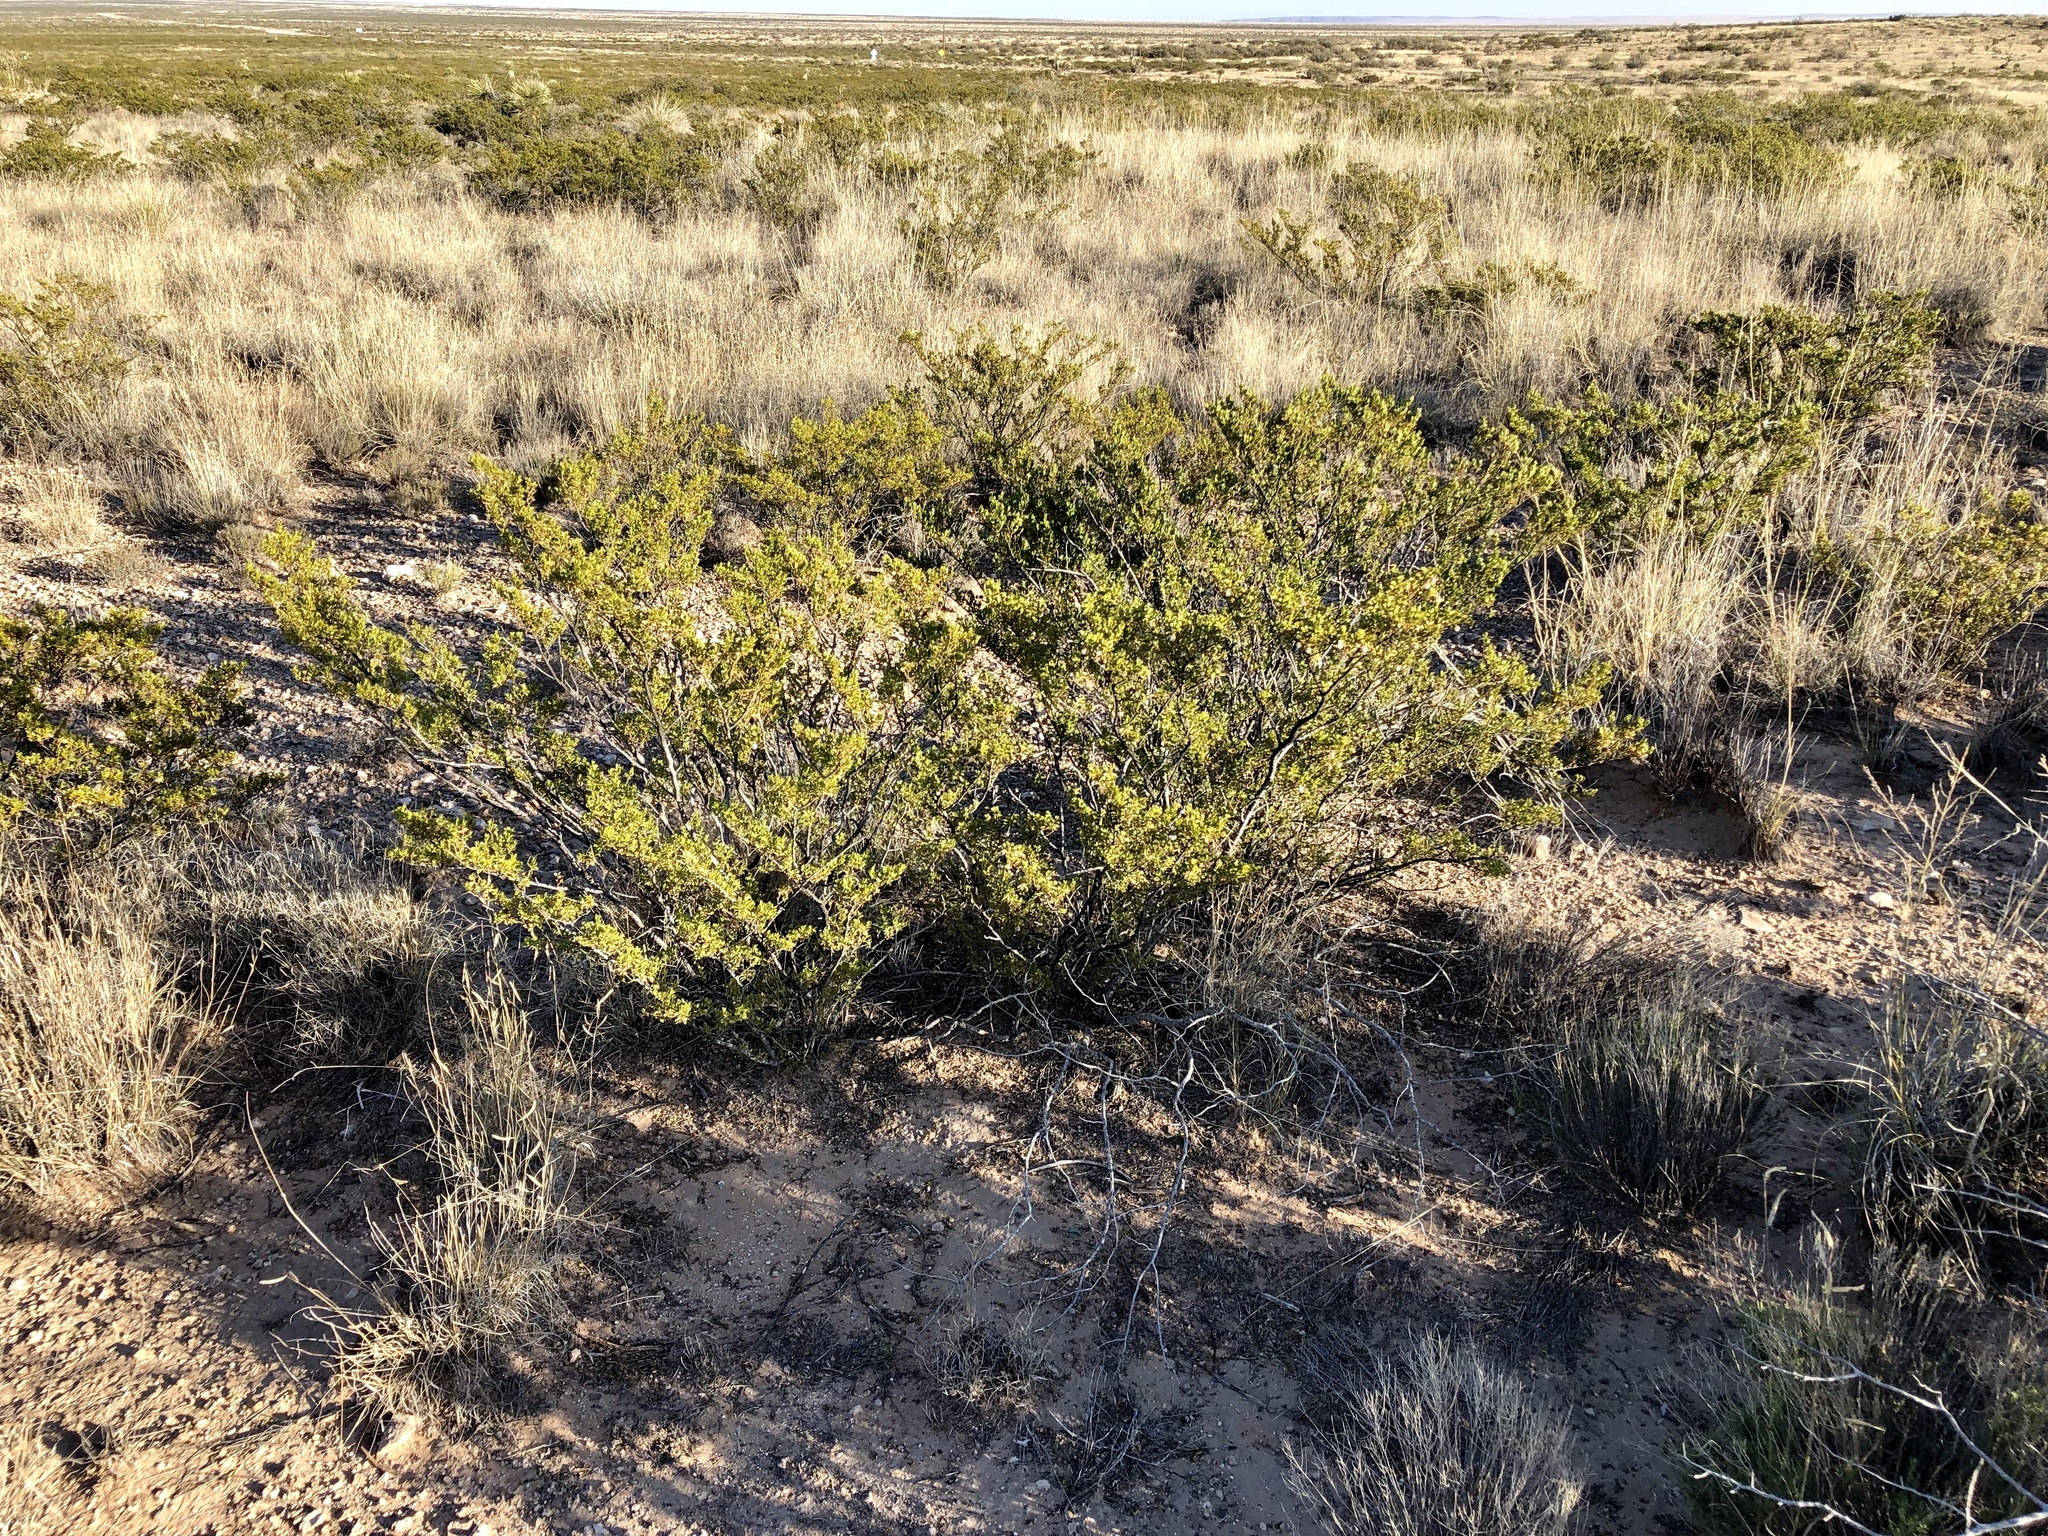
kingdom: Plantae
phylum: Tracheophyta
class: Magnoliopsida
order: Zygophyllales
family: Zygophyllaceae
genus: Larrea
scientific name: Larrea tridentata
